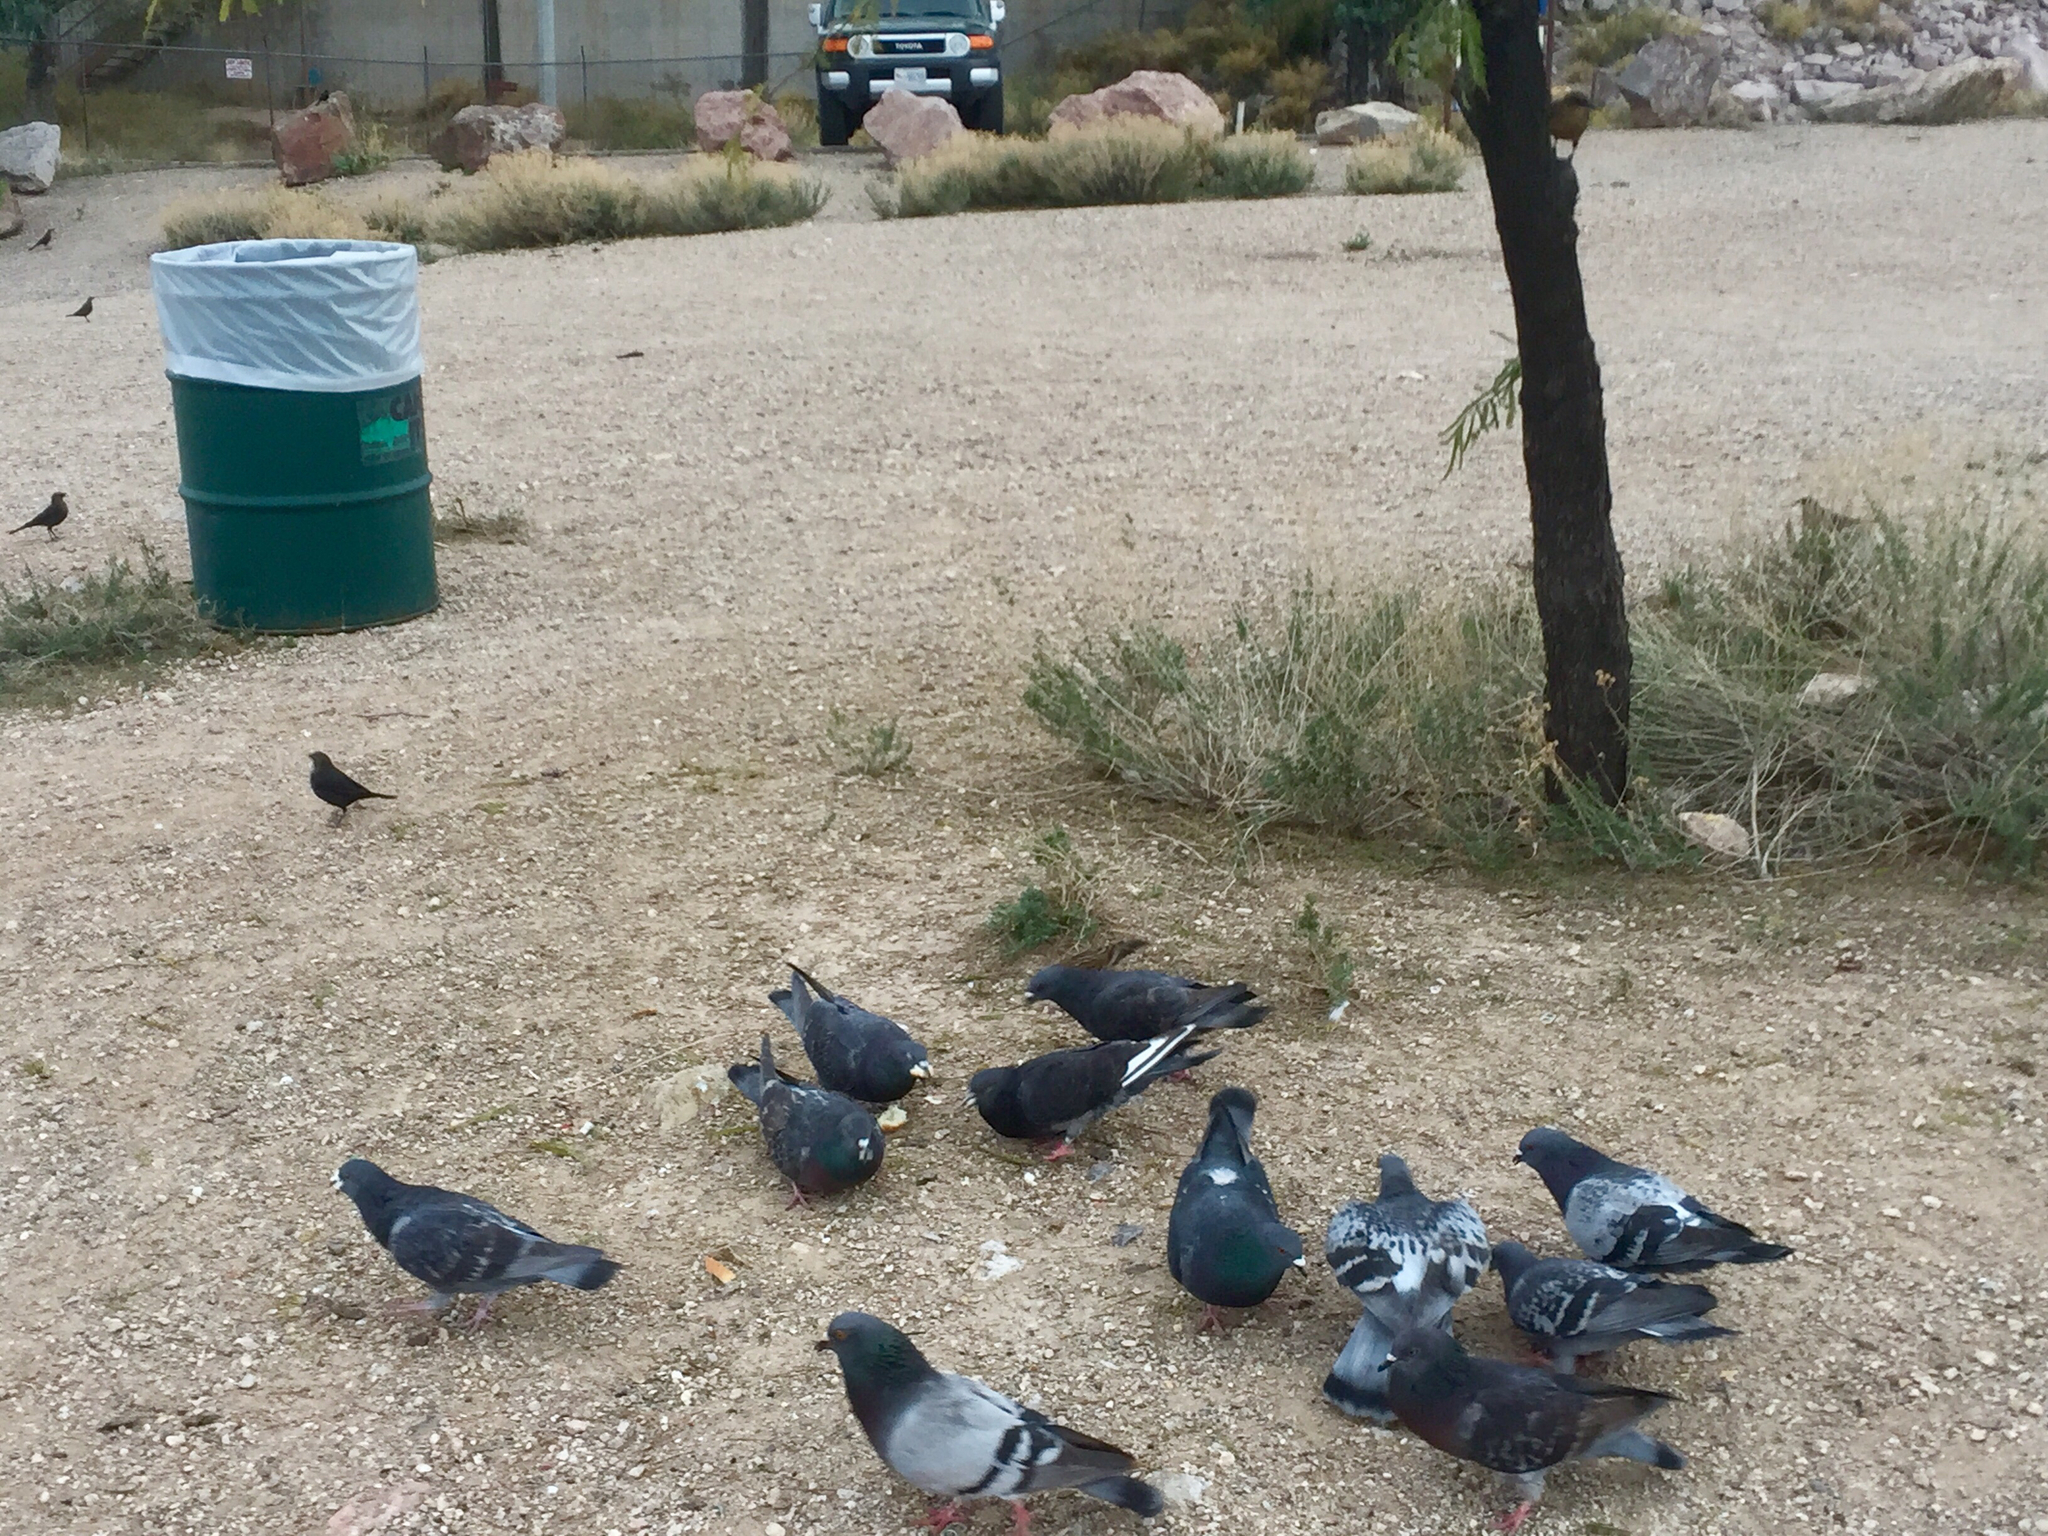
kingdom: Animalia
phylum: Chordata
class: Aves
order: Columbiformes
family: Columbidae
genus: Columba
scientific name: Columba livia
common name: Rock pigeon
